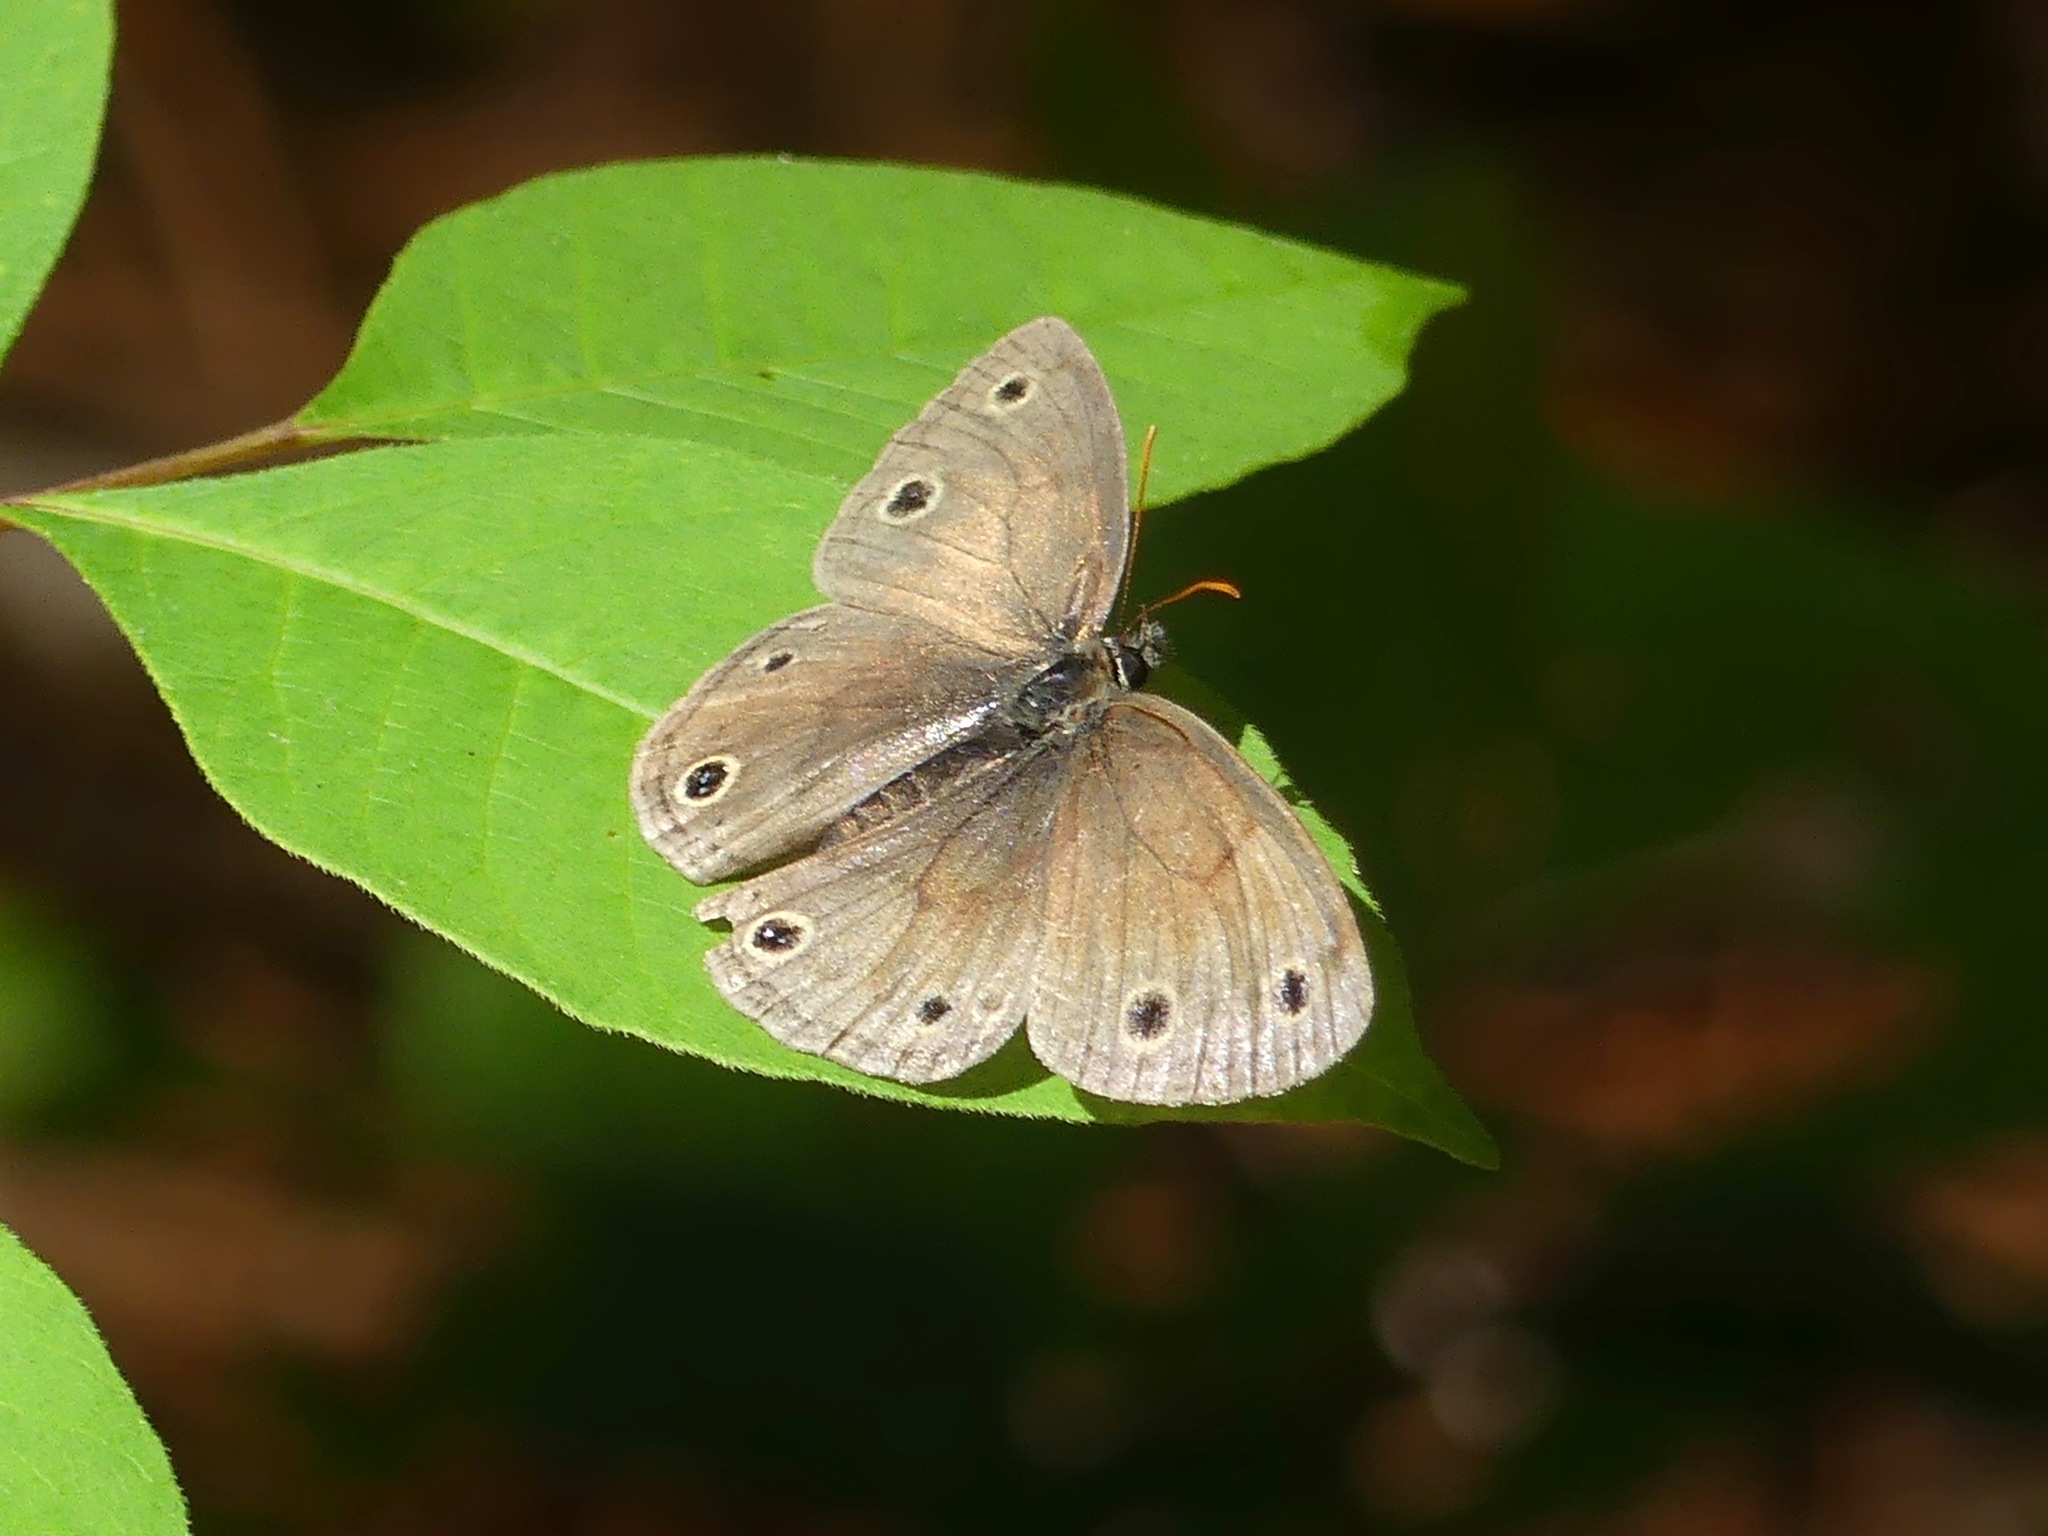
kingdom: Animalia
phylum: Arthropoda
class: Insecta
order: Lepidoptera
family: Nymphalidae
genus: Euptychia
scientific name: Euptychia cymela
